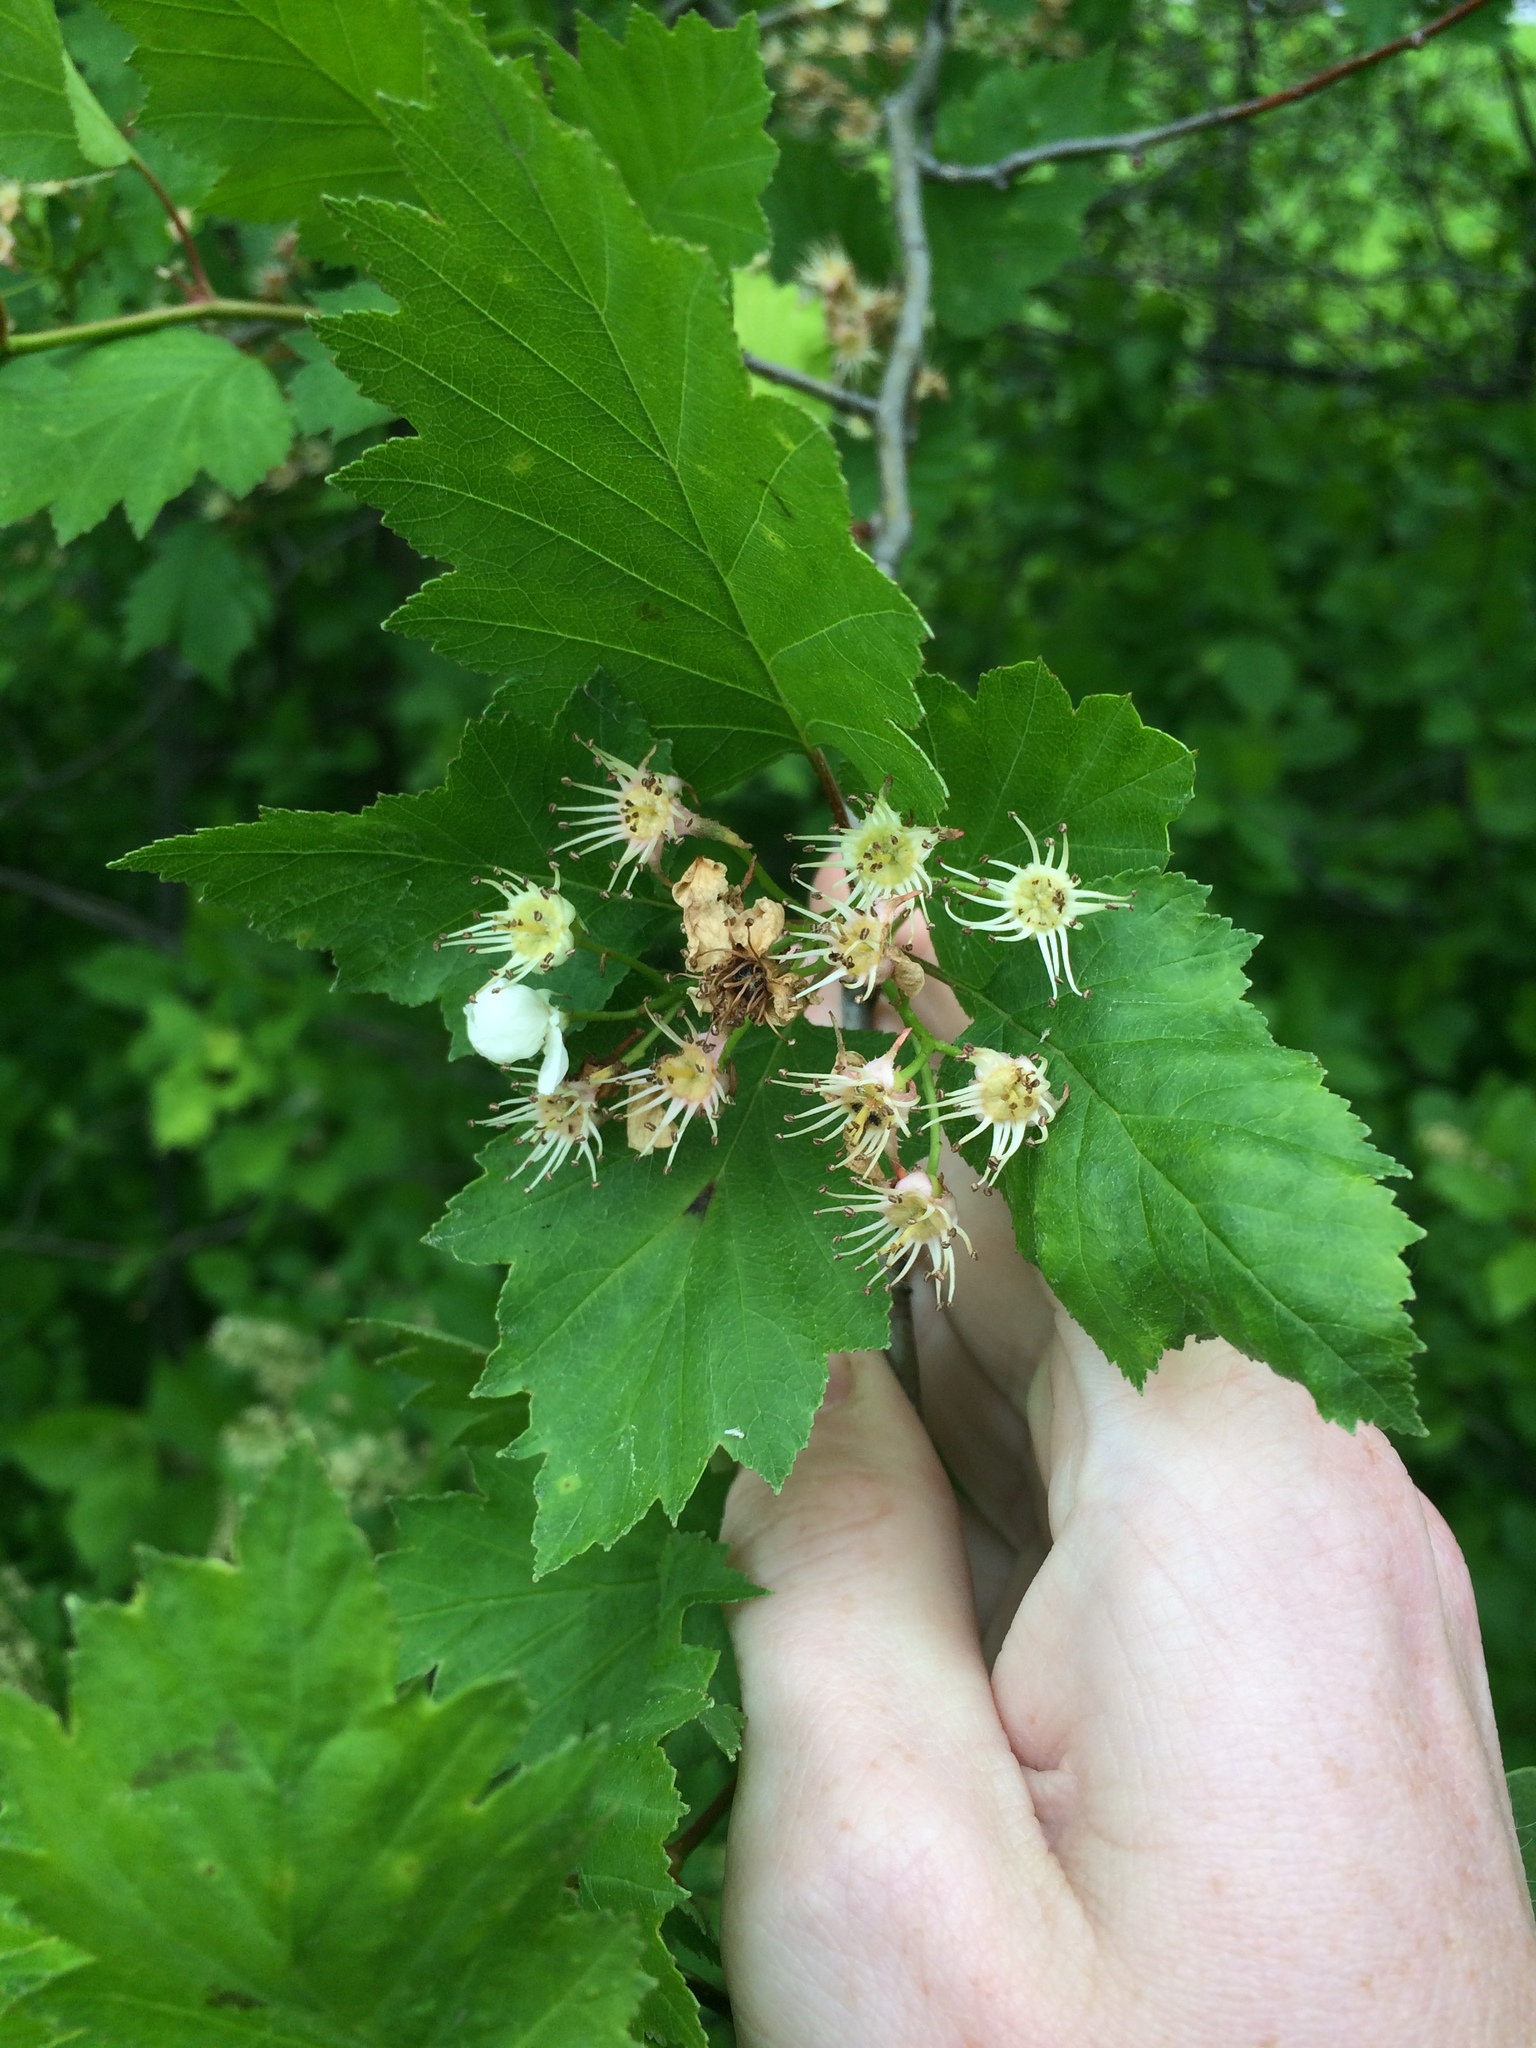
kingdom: Plantae
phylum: Tracheophyta
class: Magnoliopsida
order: Rosales
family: Rosaceae
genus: Crataegus
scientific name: Crataegus irrasa
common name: Unshorn hawthorn
